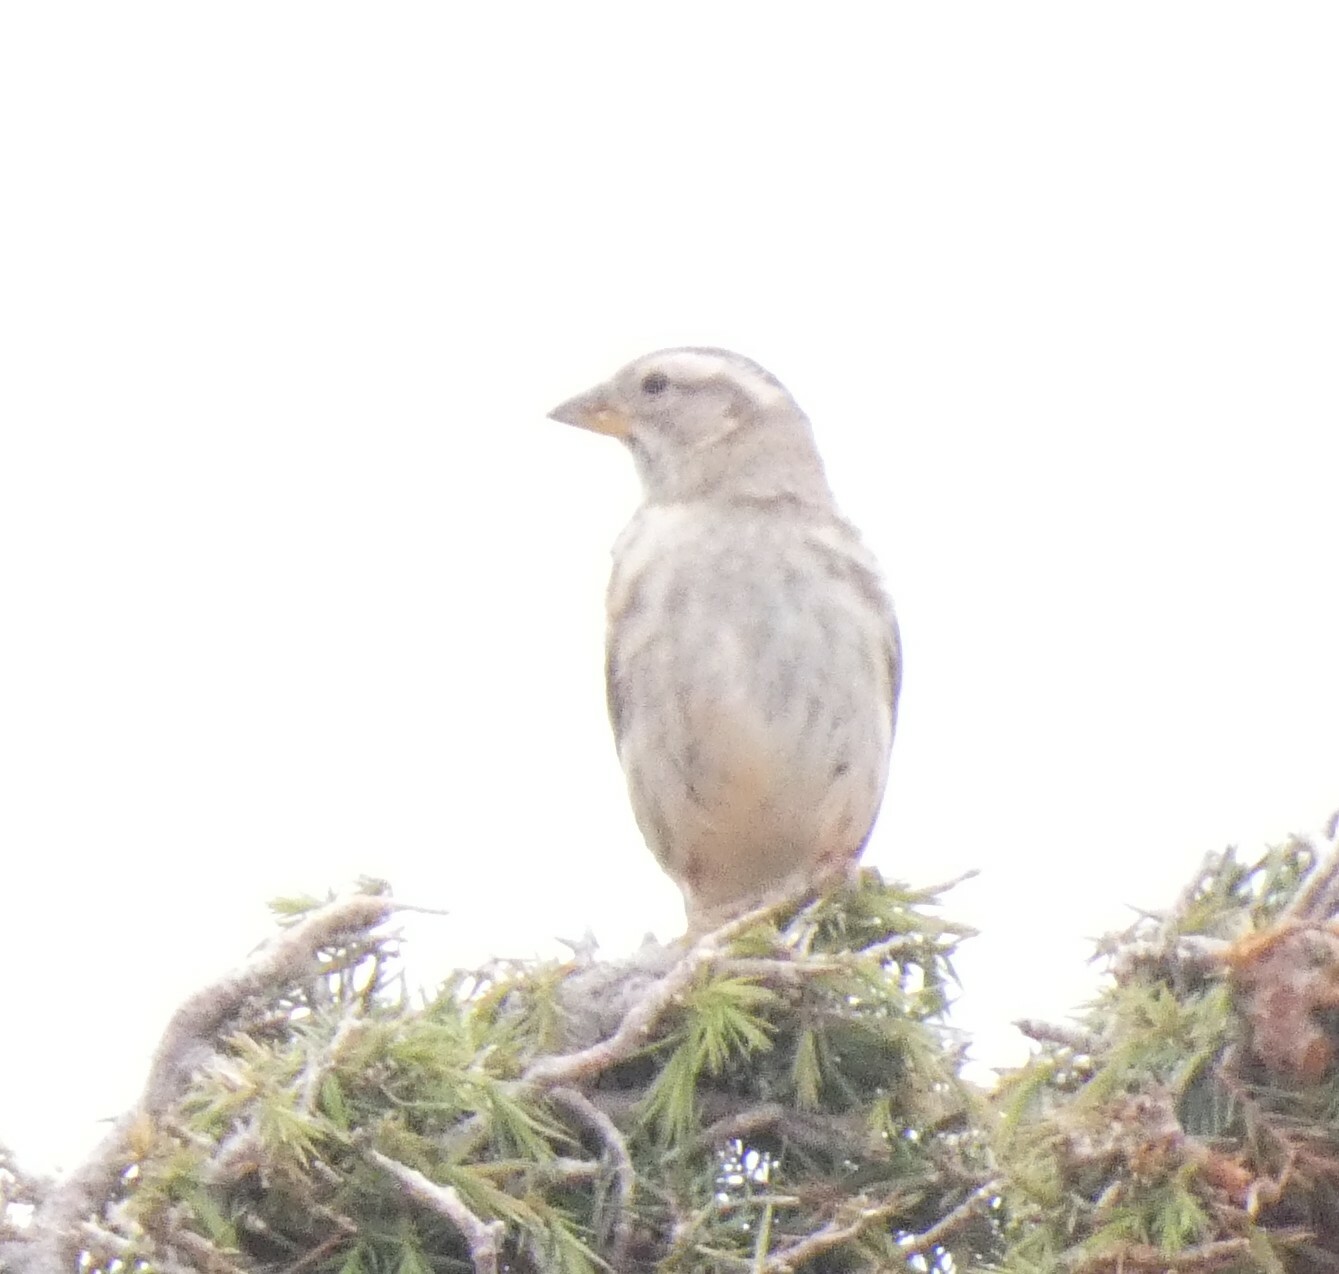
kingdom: Animalia
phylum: Chordata
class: Aves
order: Passeriformes
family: Passeridae
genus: Petronia
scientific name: Petronia petronia
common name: Rock sparrow
